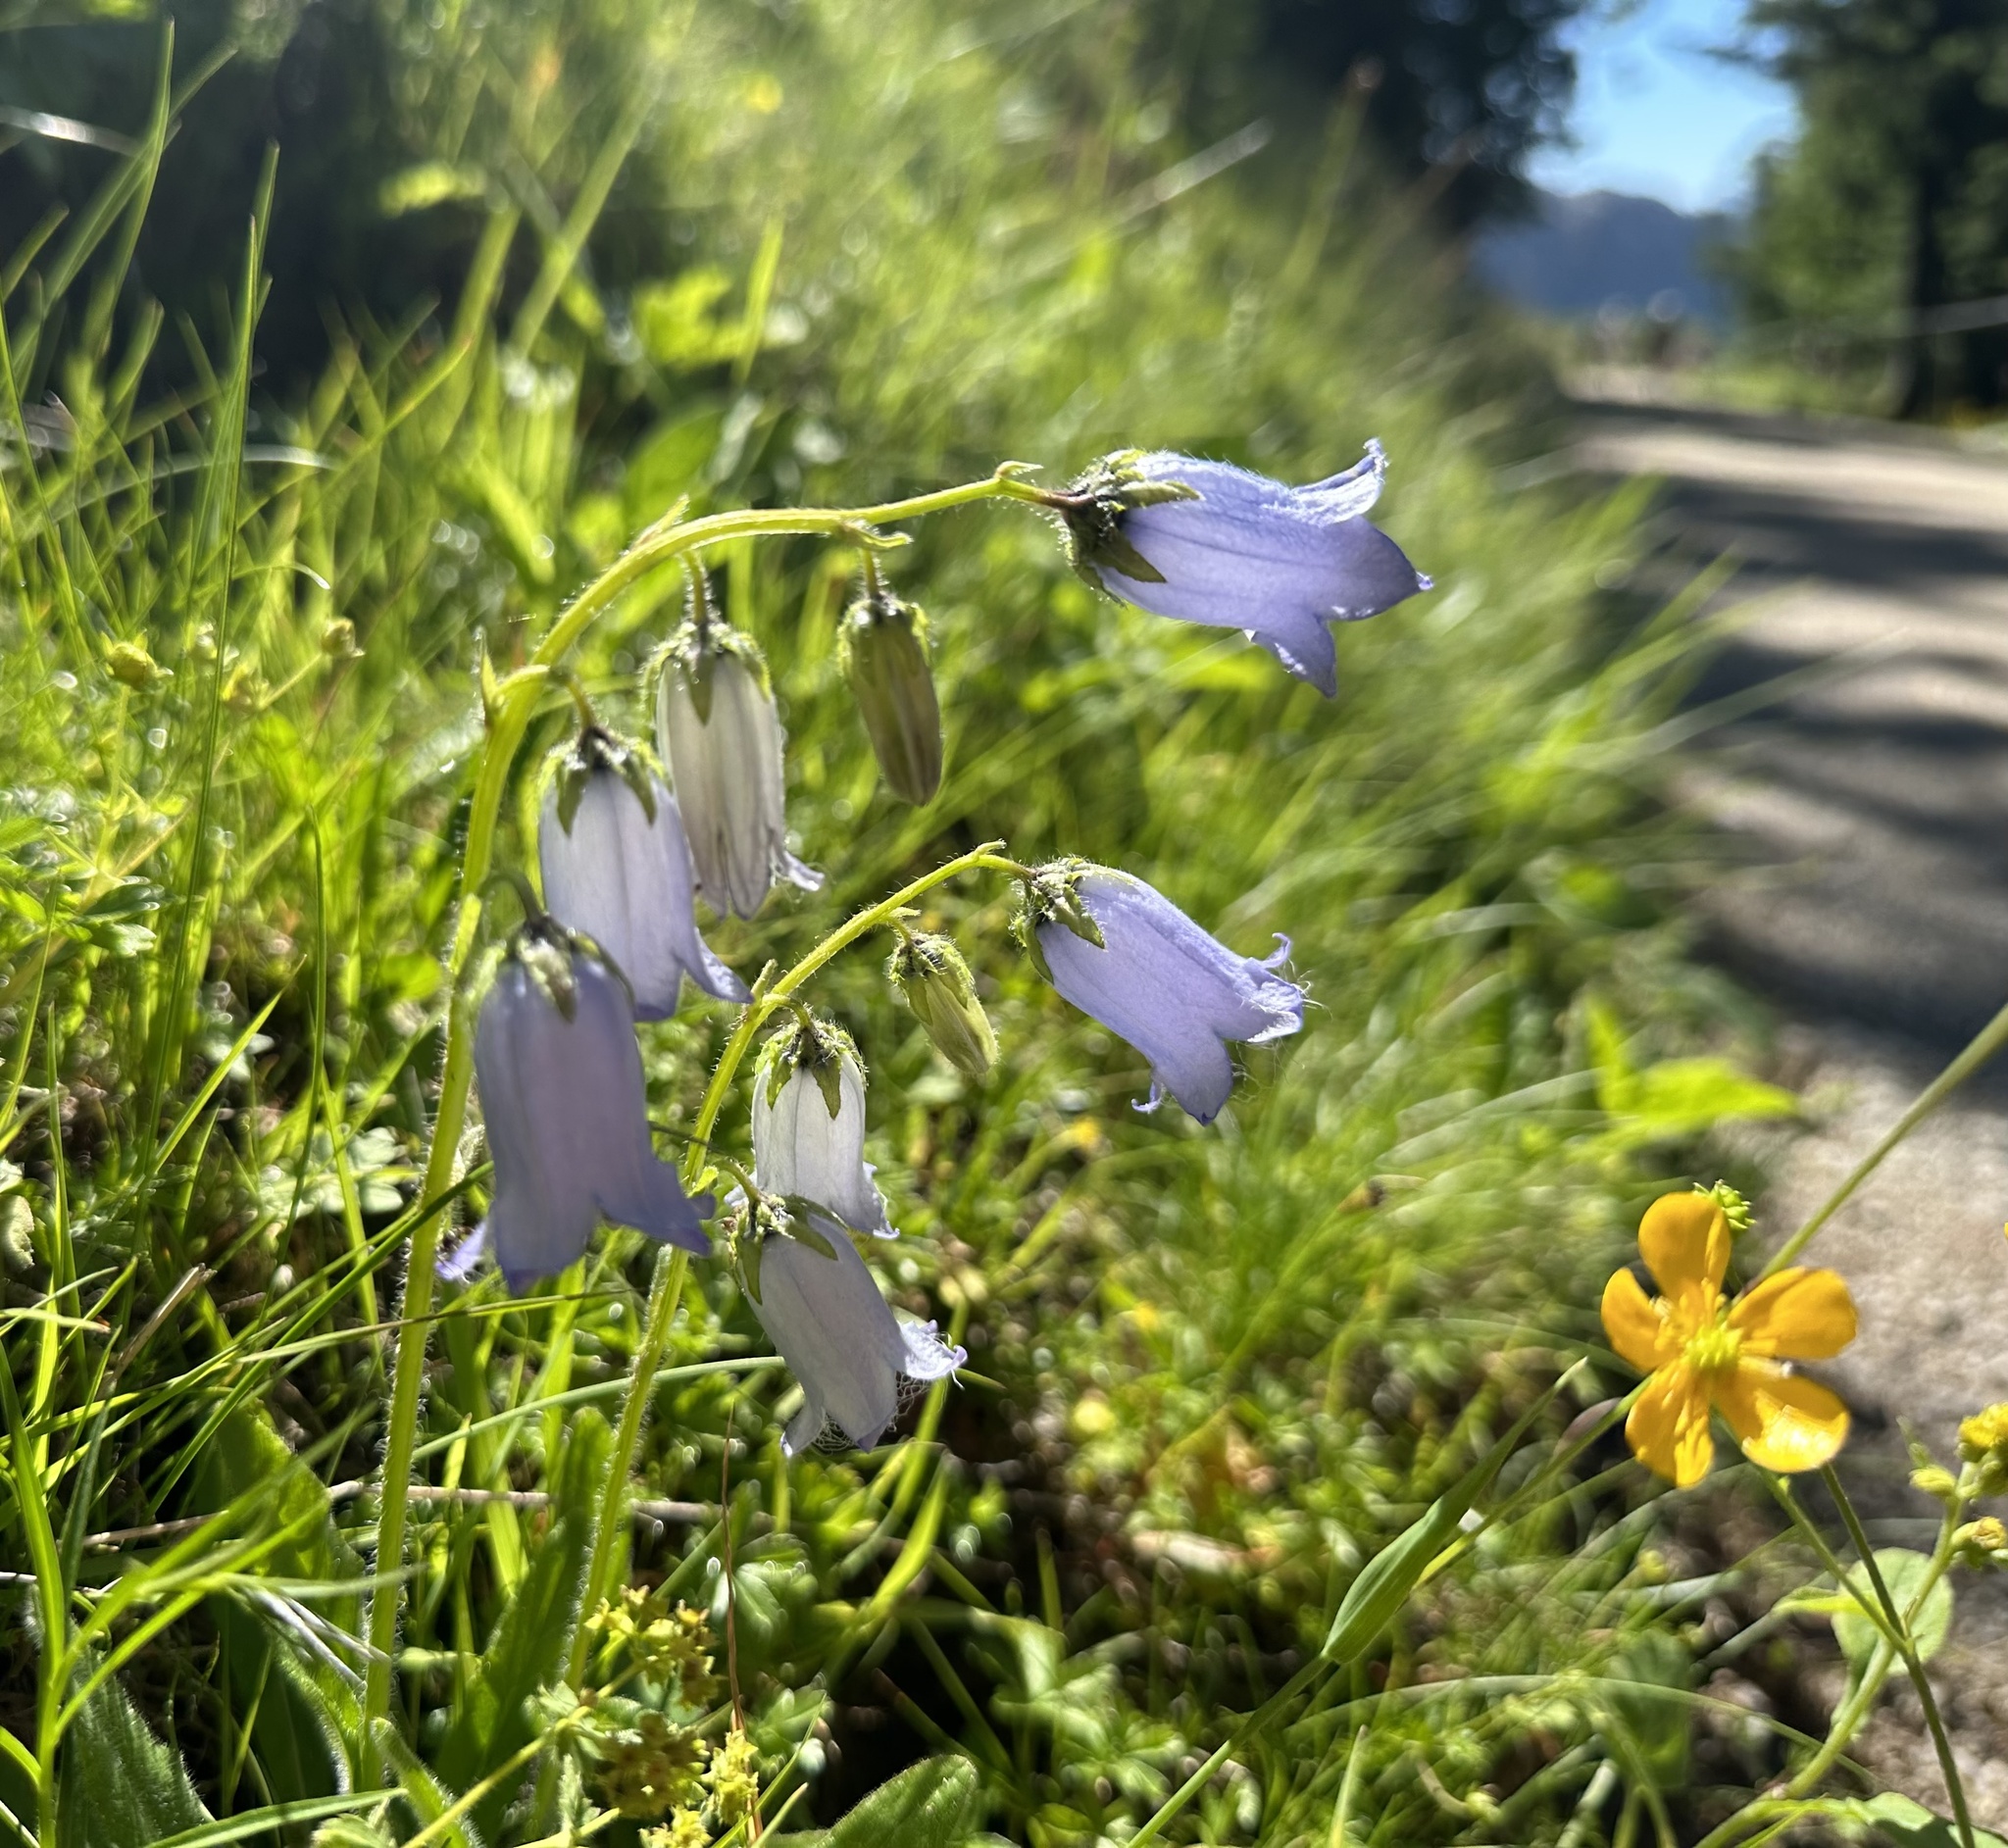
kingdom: Plantae
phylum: Tracheophyta
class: Magnoliopsida
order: Asterales
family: Campanulaceae
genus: Campanula
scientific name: Campanula barbata
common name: Bearded bellflower
